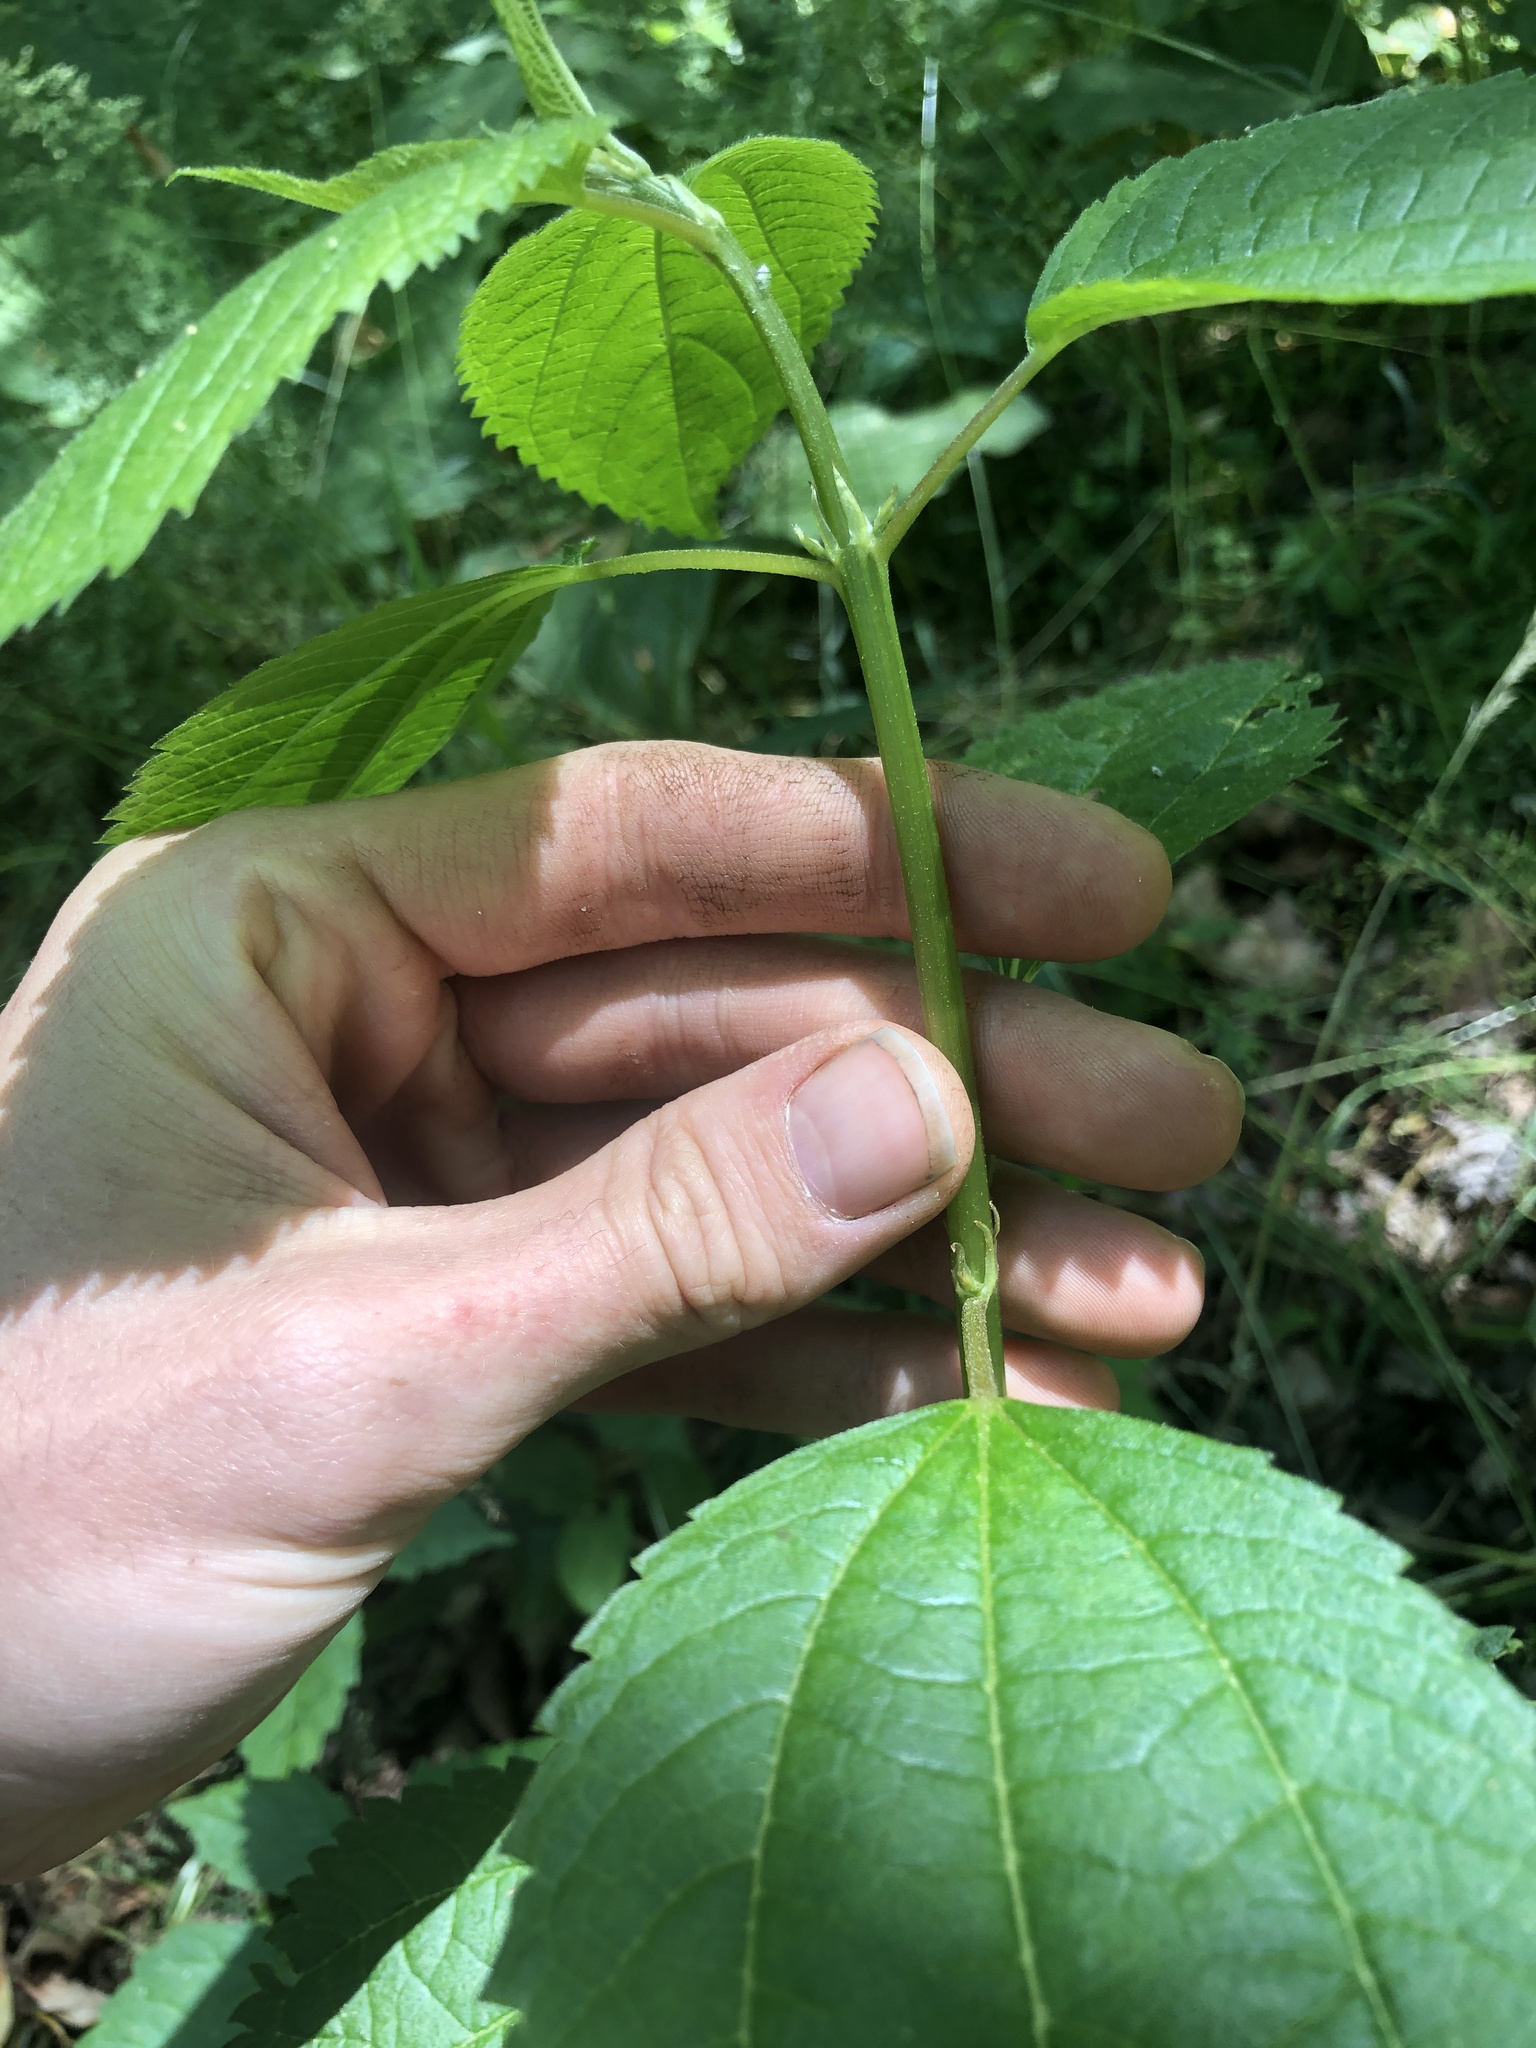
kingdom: Plantae
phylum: Tracheophyta
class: Magnoliopsida
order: Rosales
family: Urticaceae
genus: Boehmeria
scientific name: Boehmeria cylindrica
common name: Bog-hemp
